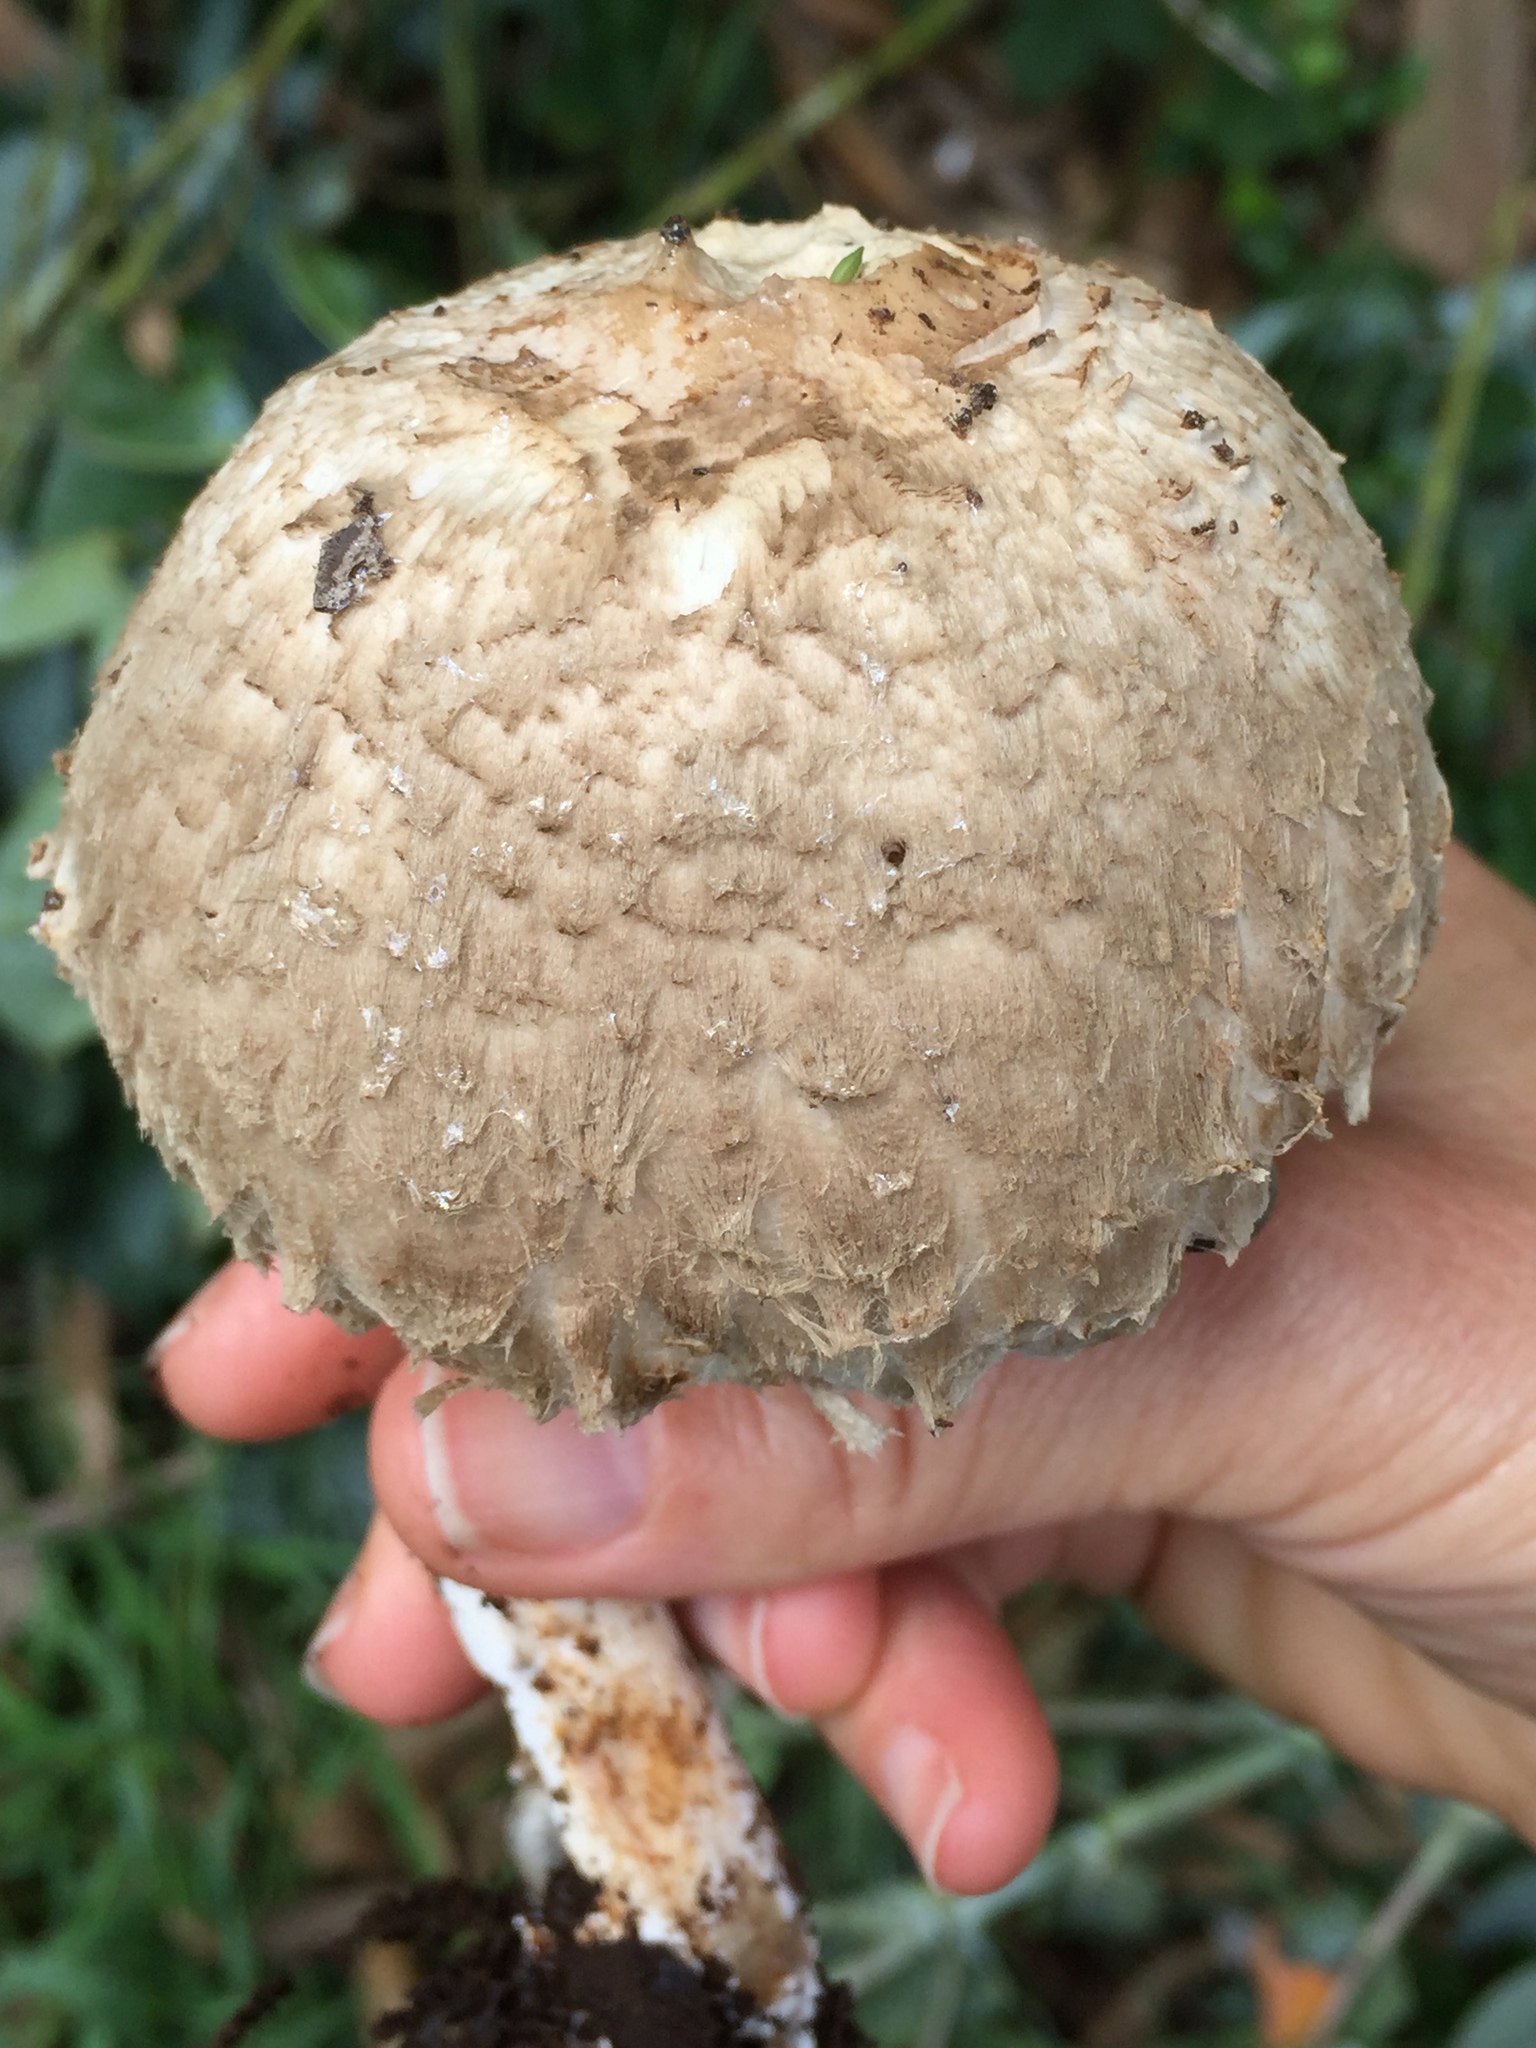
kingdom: Fungi
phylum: Basidiomycota
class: Agaricomycetes
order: Agaricales
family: Agaricaceae
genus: Chlorophyllum
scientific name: Chlorophyllum olivieri
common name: Conifer parasol
